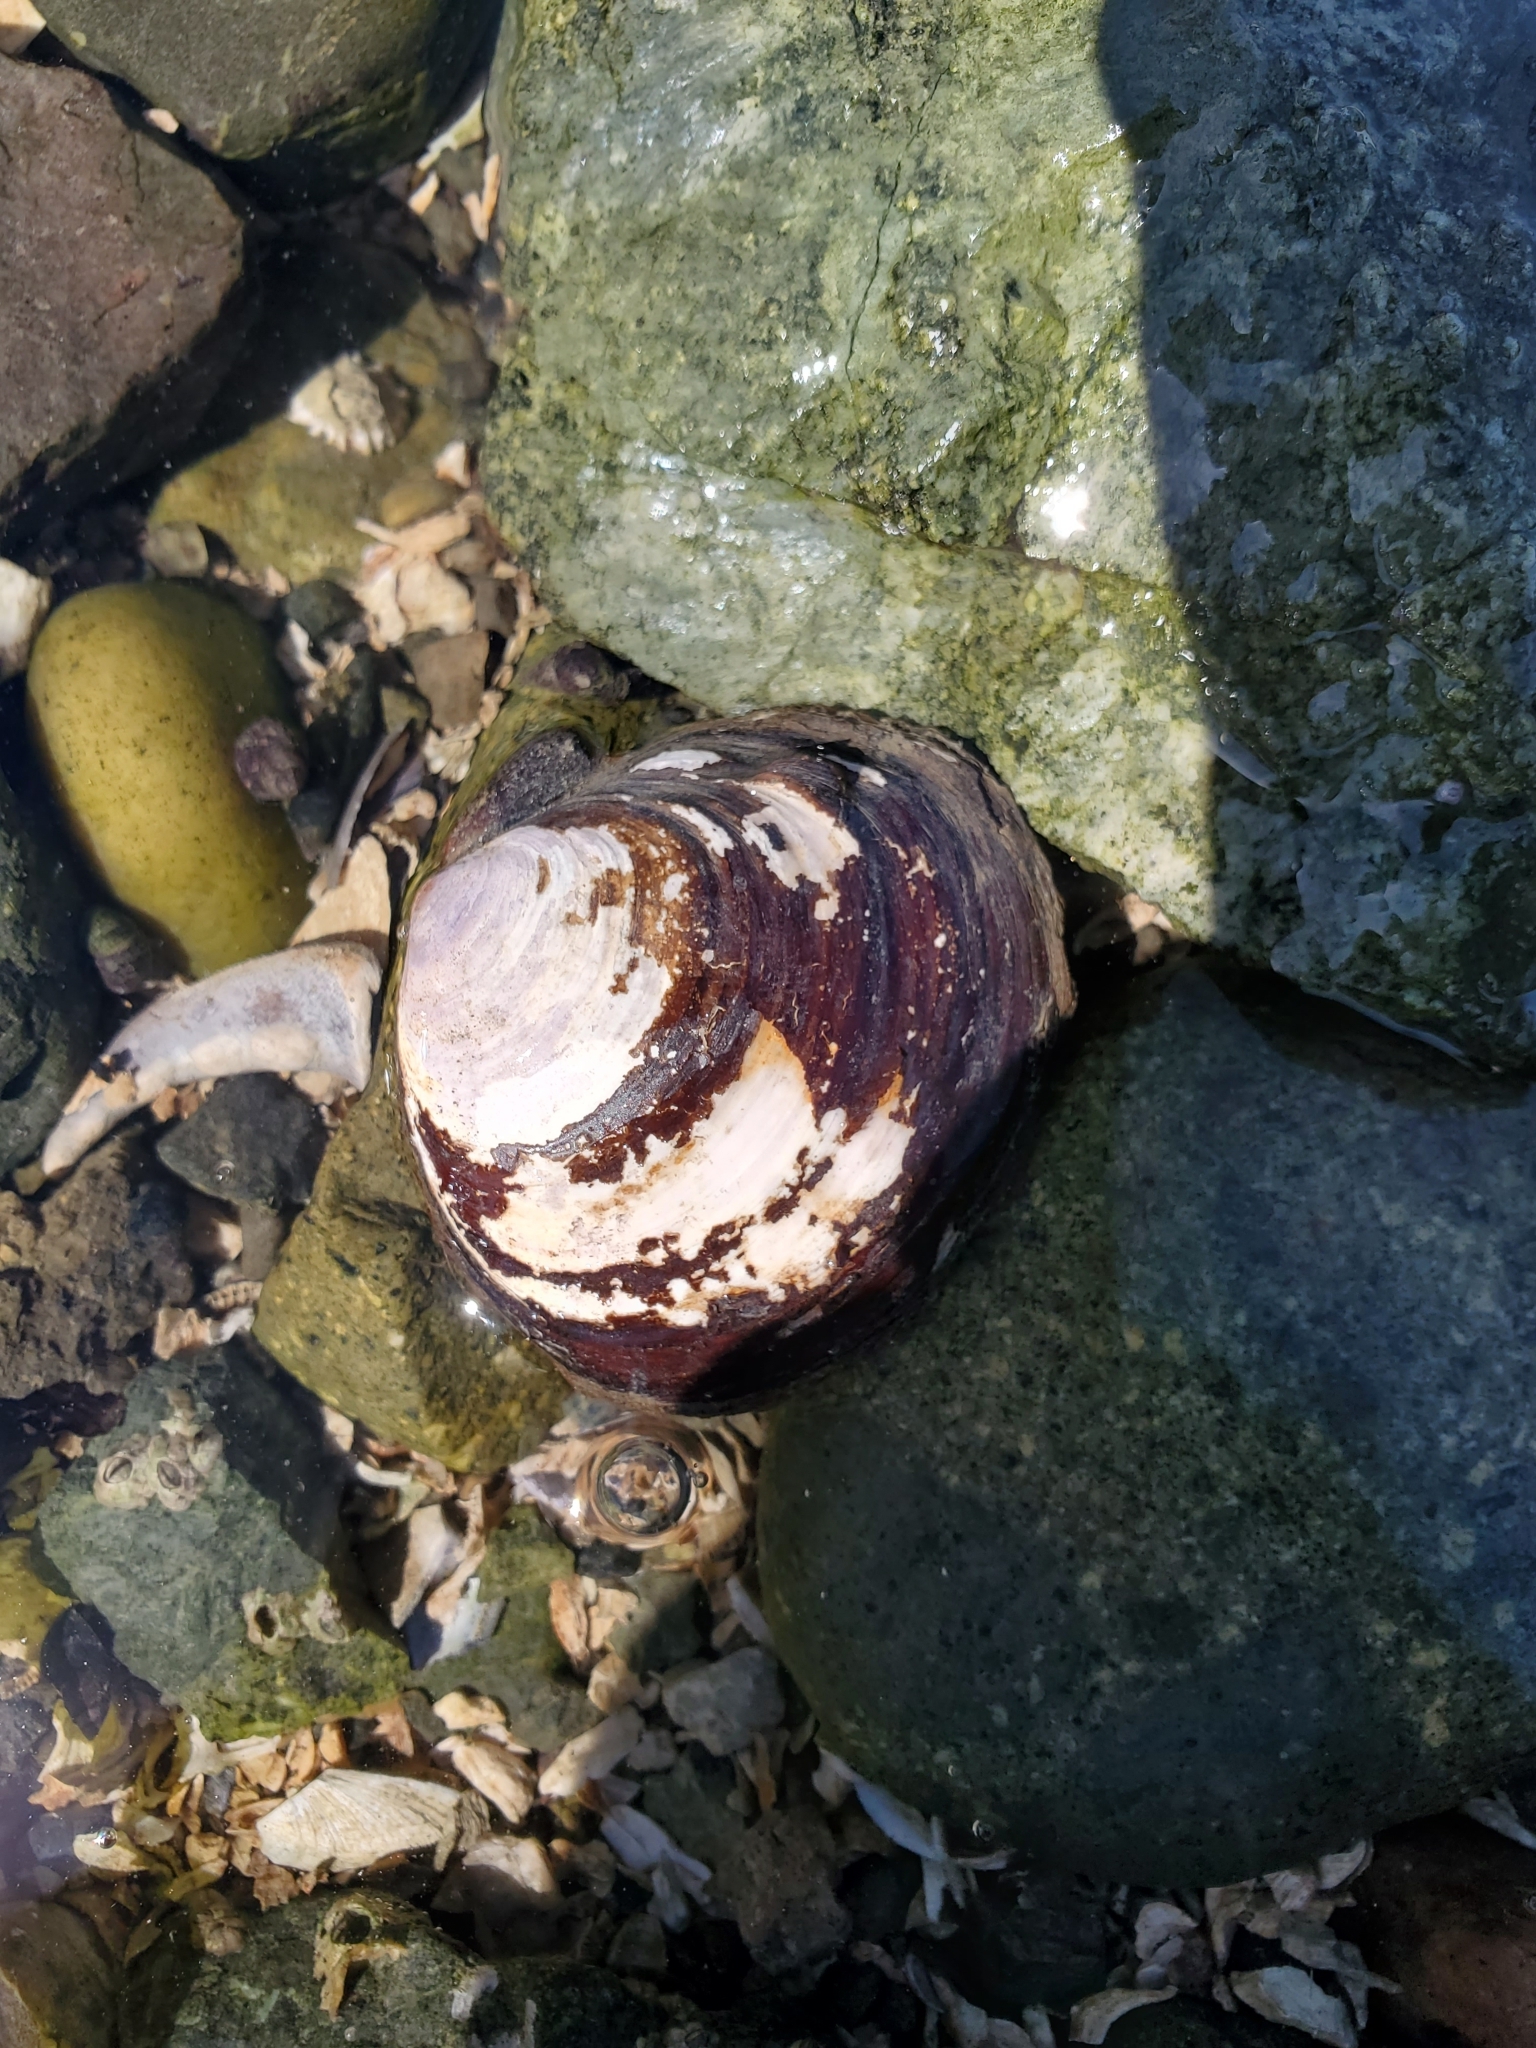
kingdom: Animalia
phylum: Mollusca
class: Bivalvia
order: Cardiida
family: Psammobiidae
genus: Nuttallia
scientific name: Nuttallia obscurata
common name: Purple mahogany-clam
